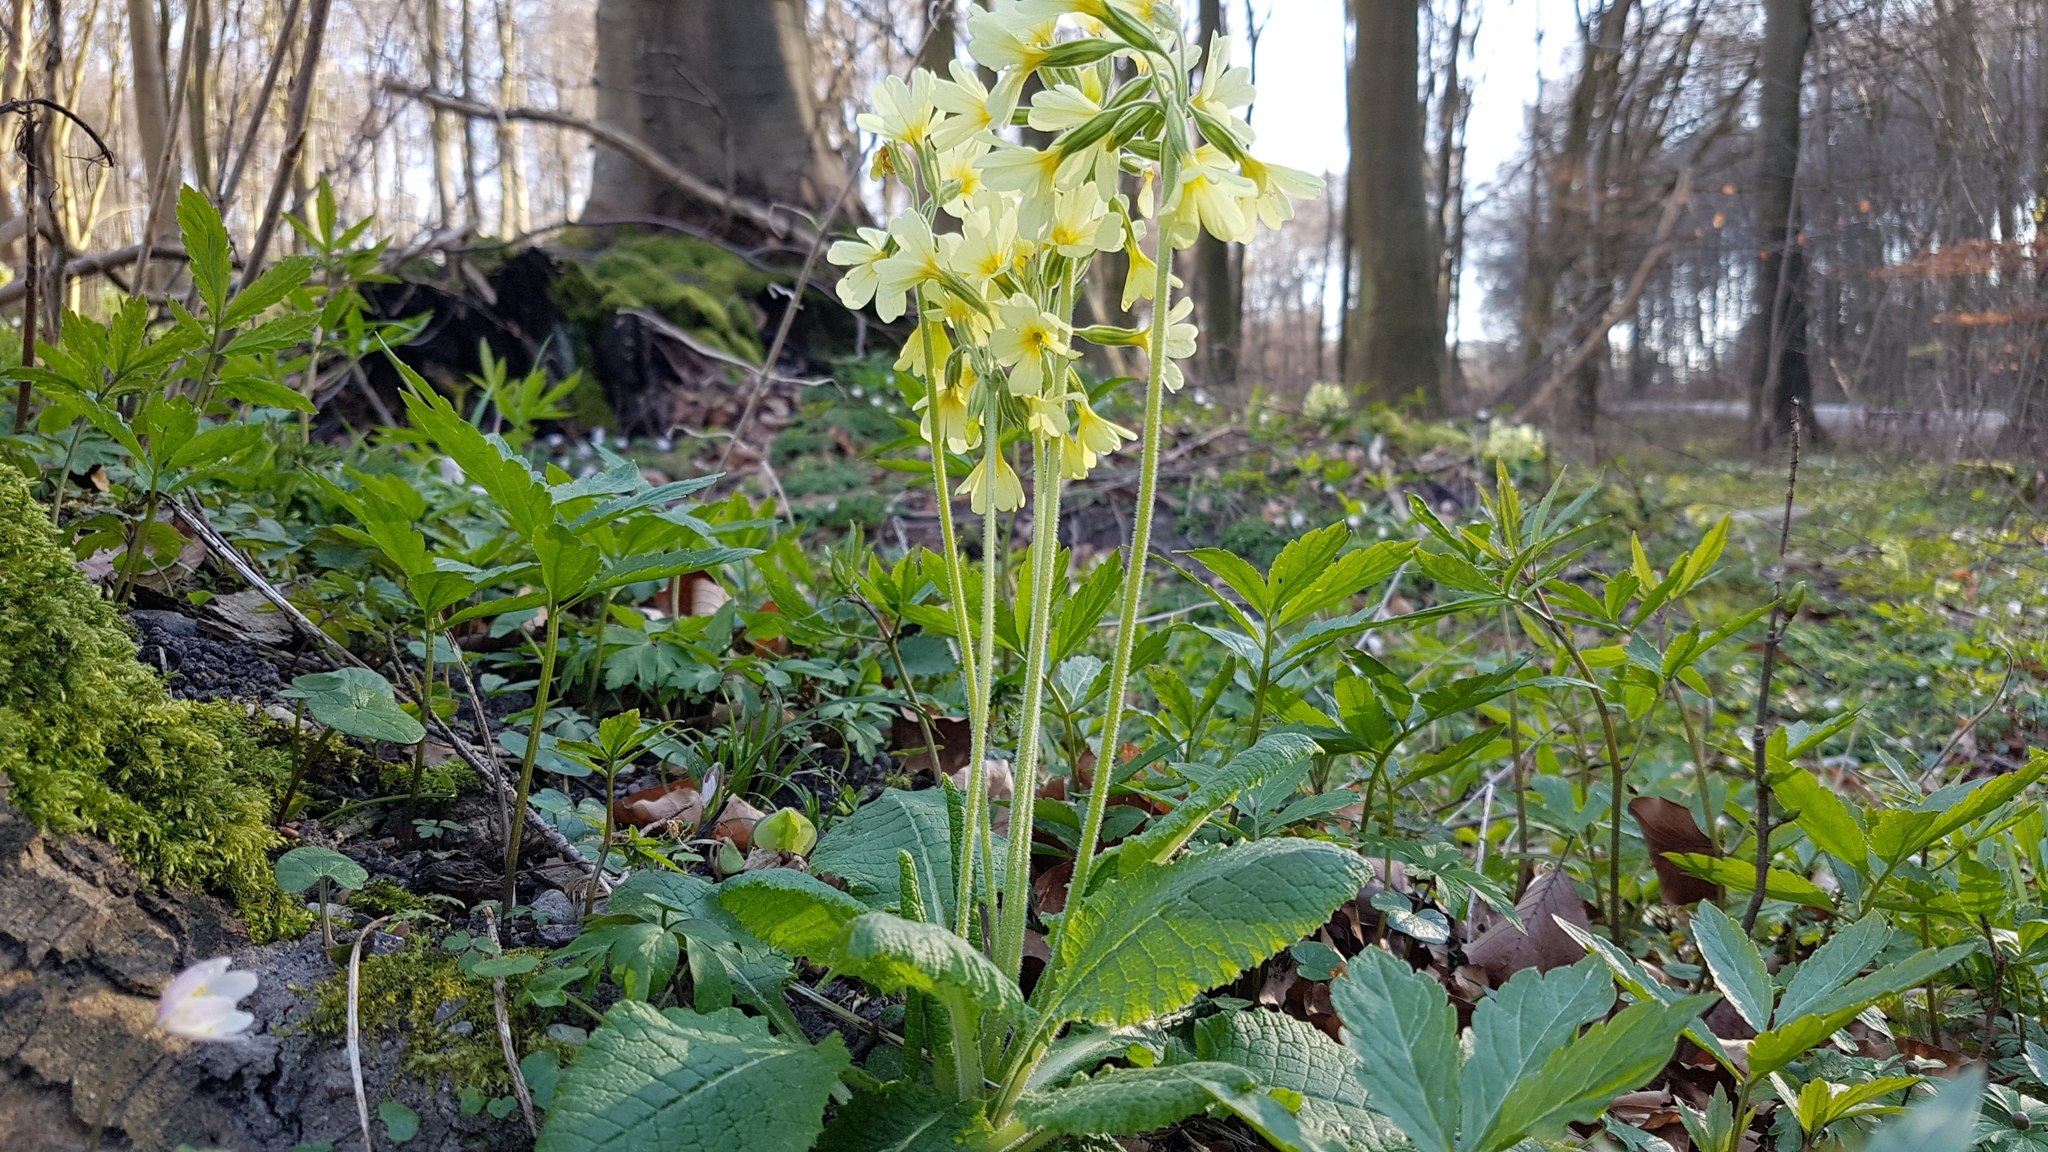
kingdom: Plantae
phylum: Tracheophyta
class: Magnoliopsida
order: Ericales
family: Primulaceae
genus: Primula
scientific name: Primula elatior
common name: Oxlip
